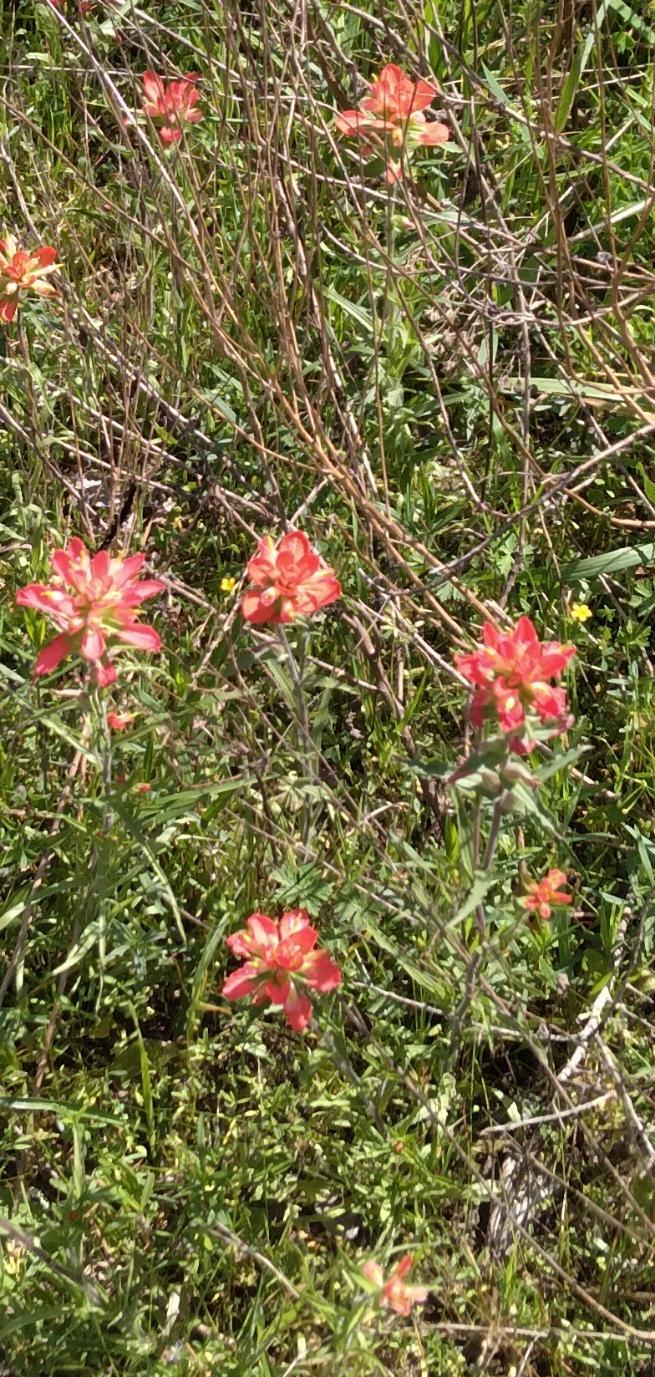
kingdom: Plantae
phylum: Tracheophyta
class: Magnoliopsida
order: Lamiales
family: Orobanchaceae
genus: Castilleja
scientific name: Castilleja indivisa
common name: Texas paintbrush
